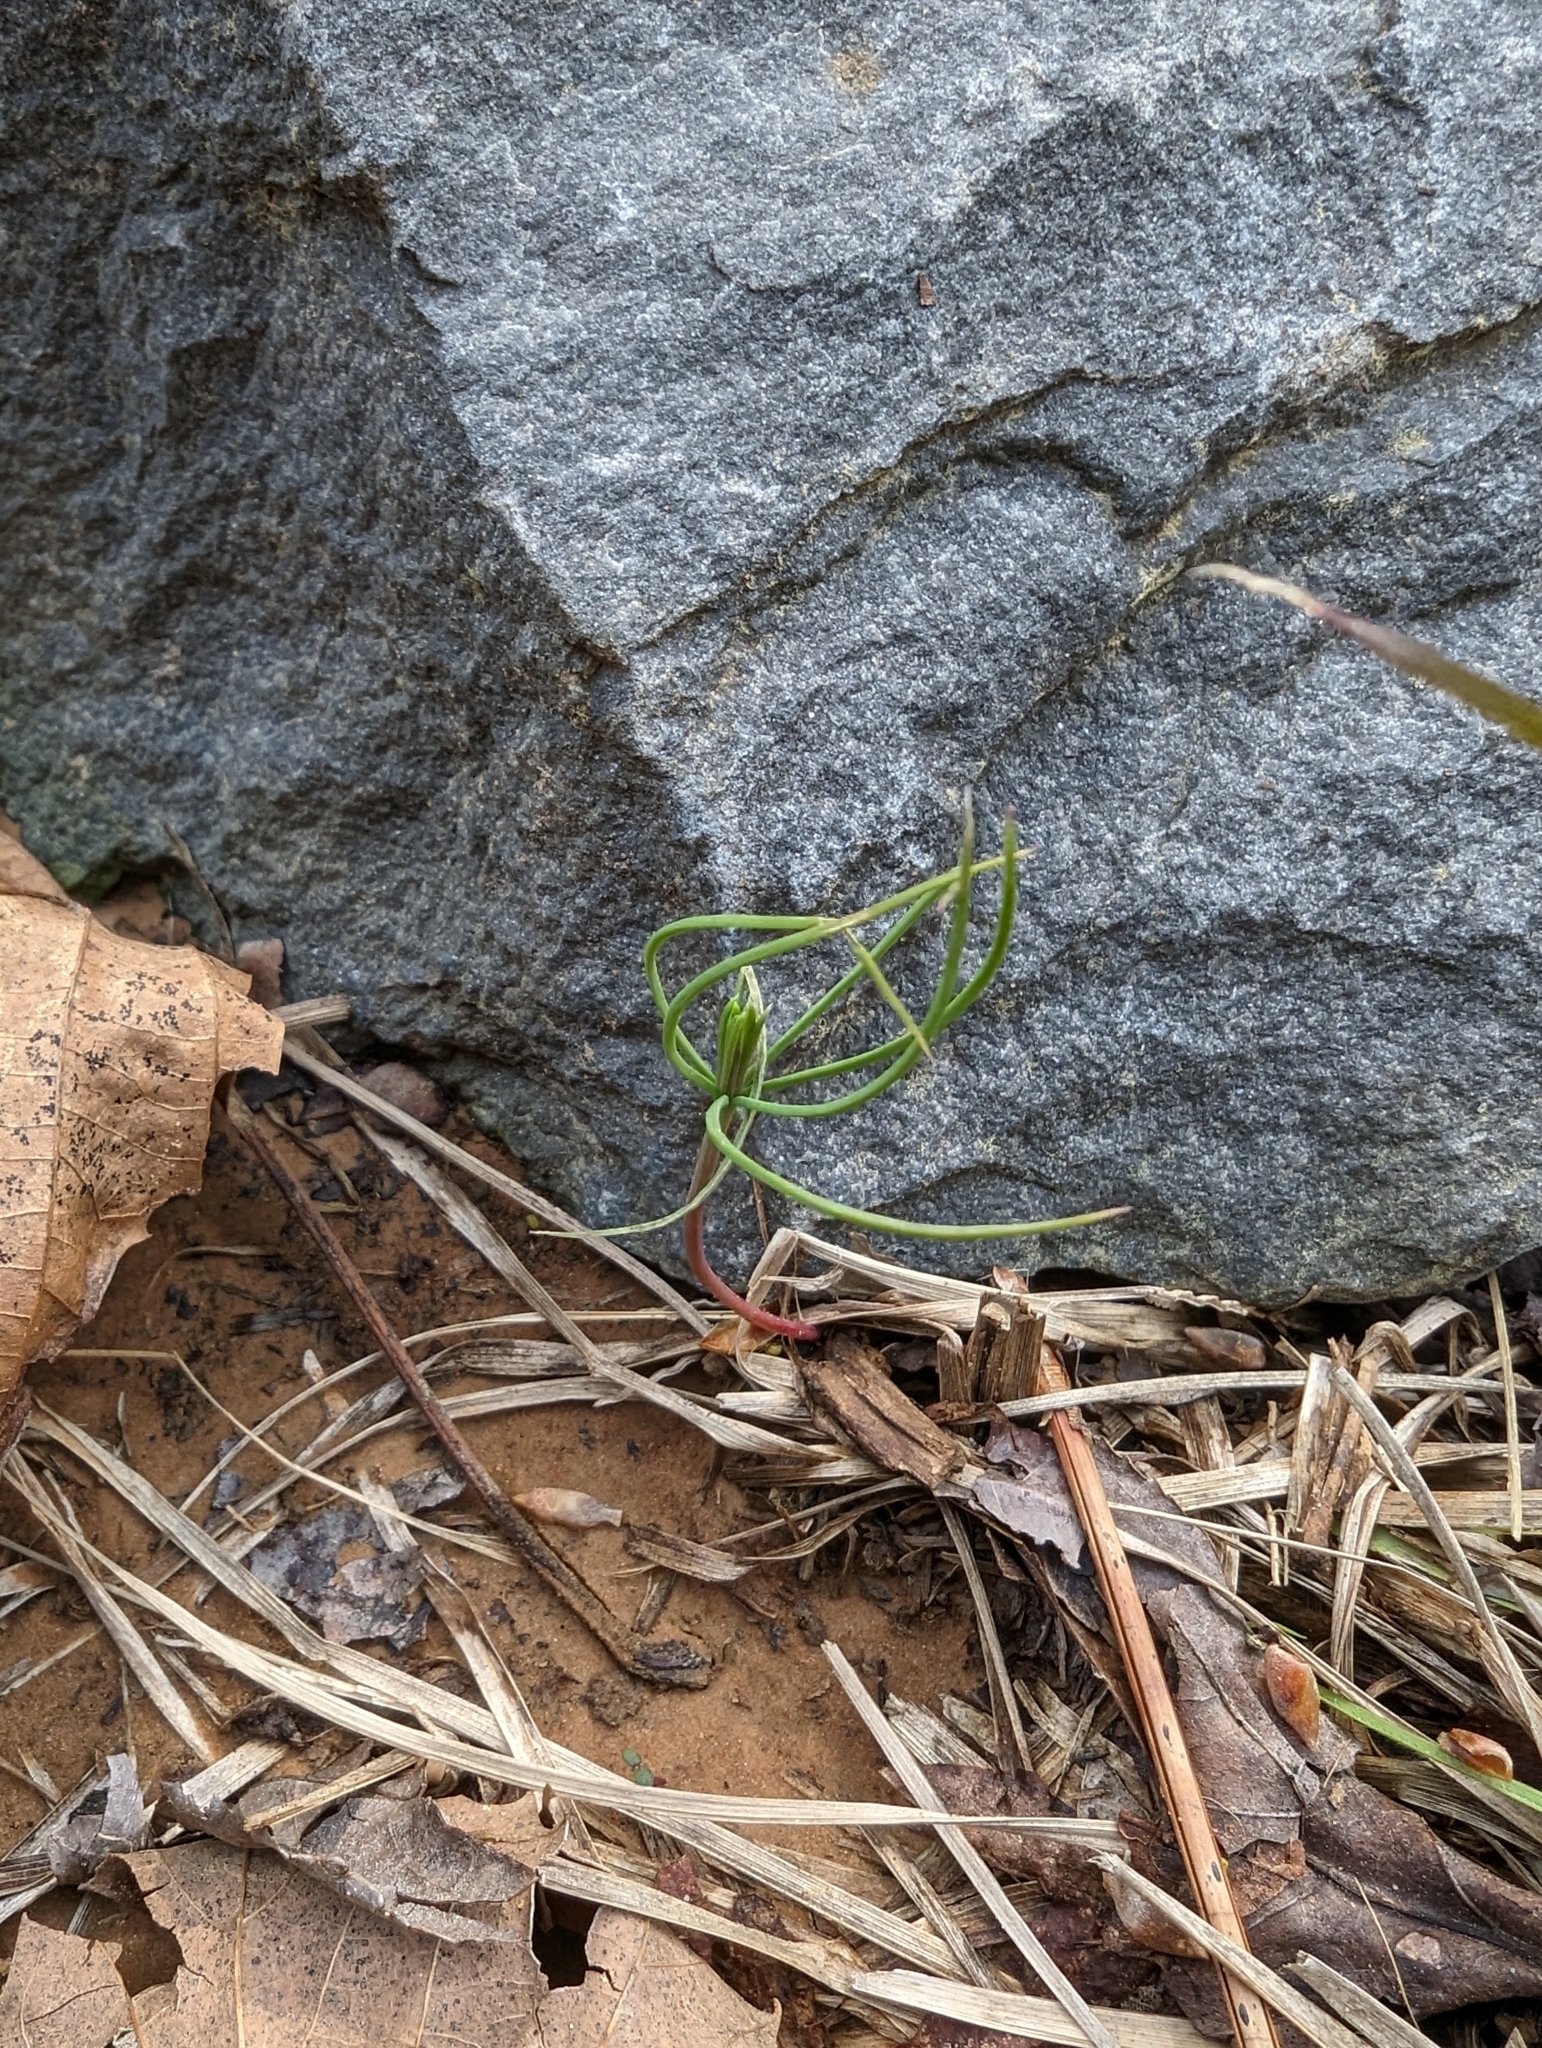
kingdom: Plantae
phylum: Tracheophyta
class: Pinopsida
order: Pinales
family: Pinaceae
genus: Pinus
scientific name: Pinus taeda
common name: Loblolly pine
